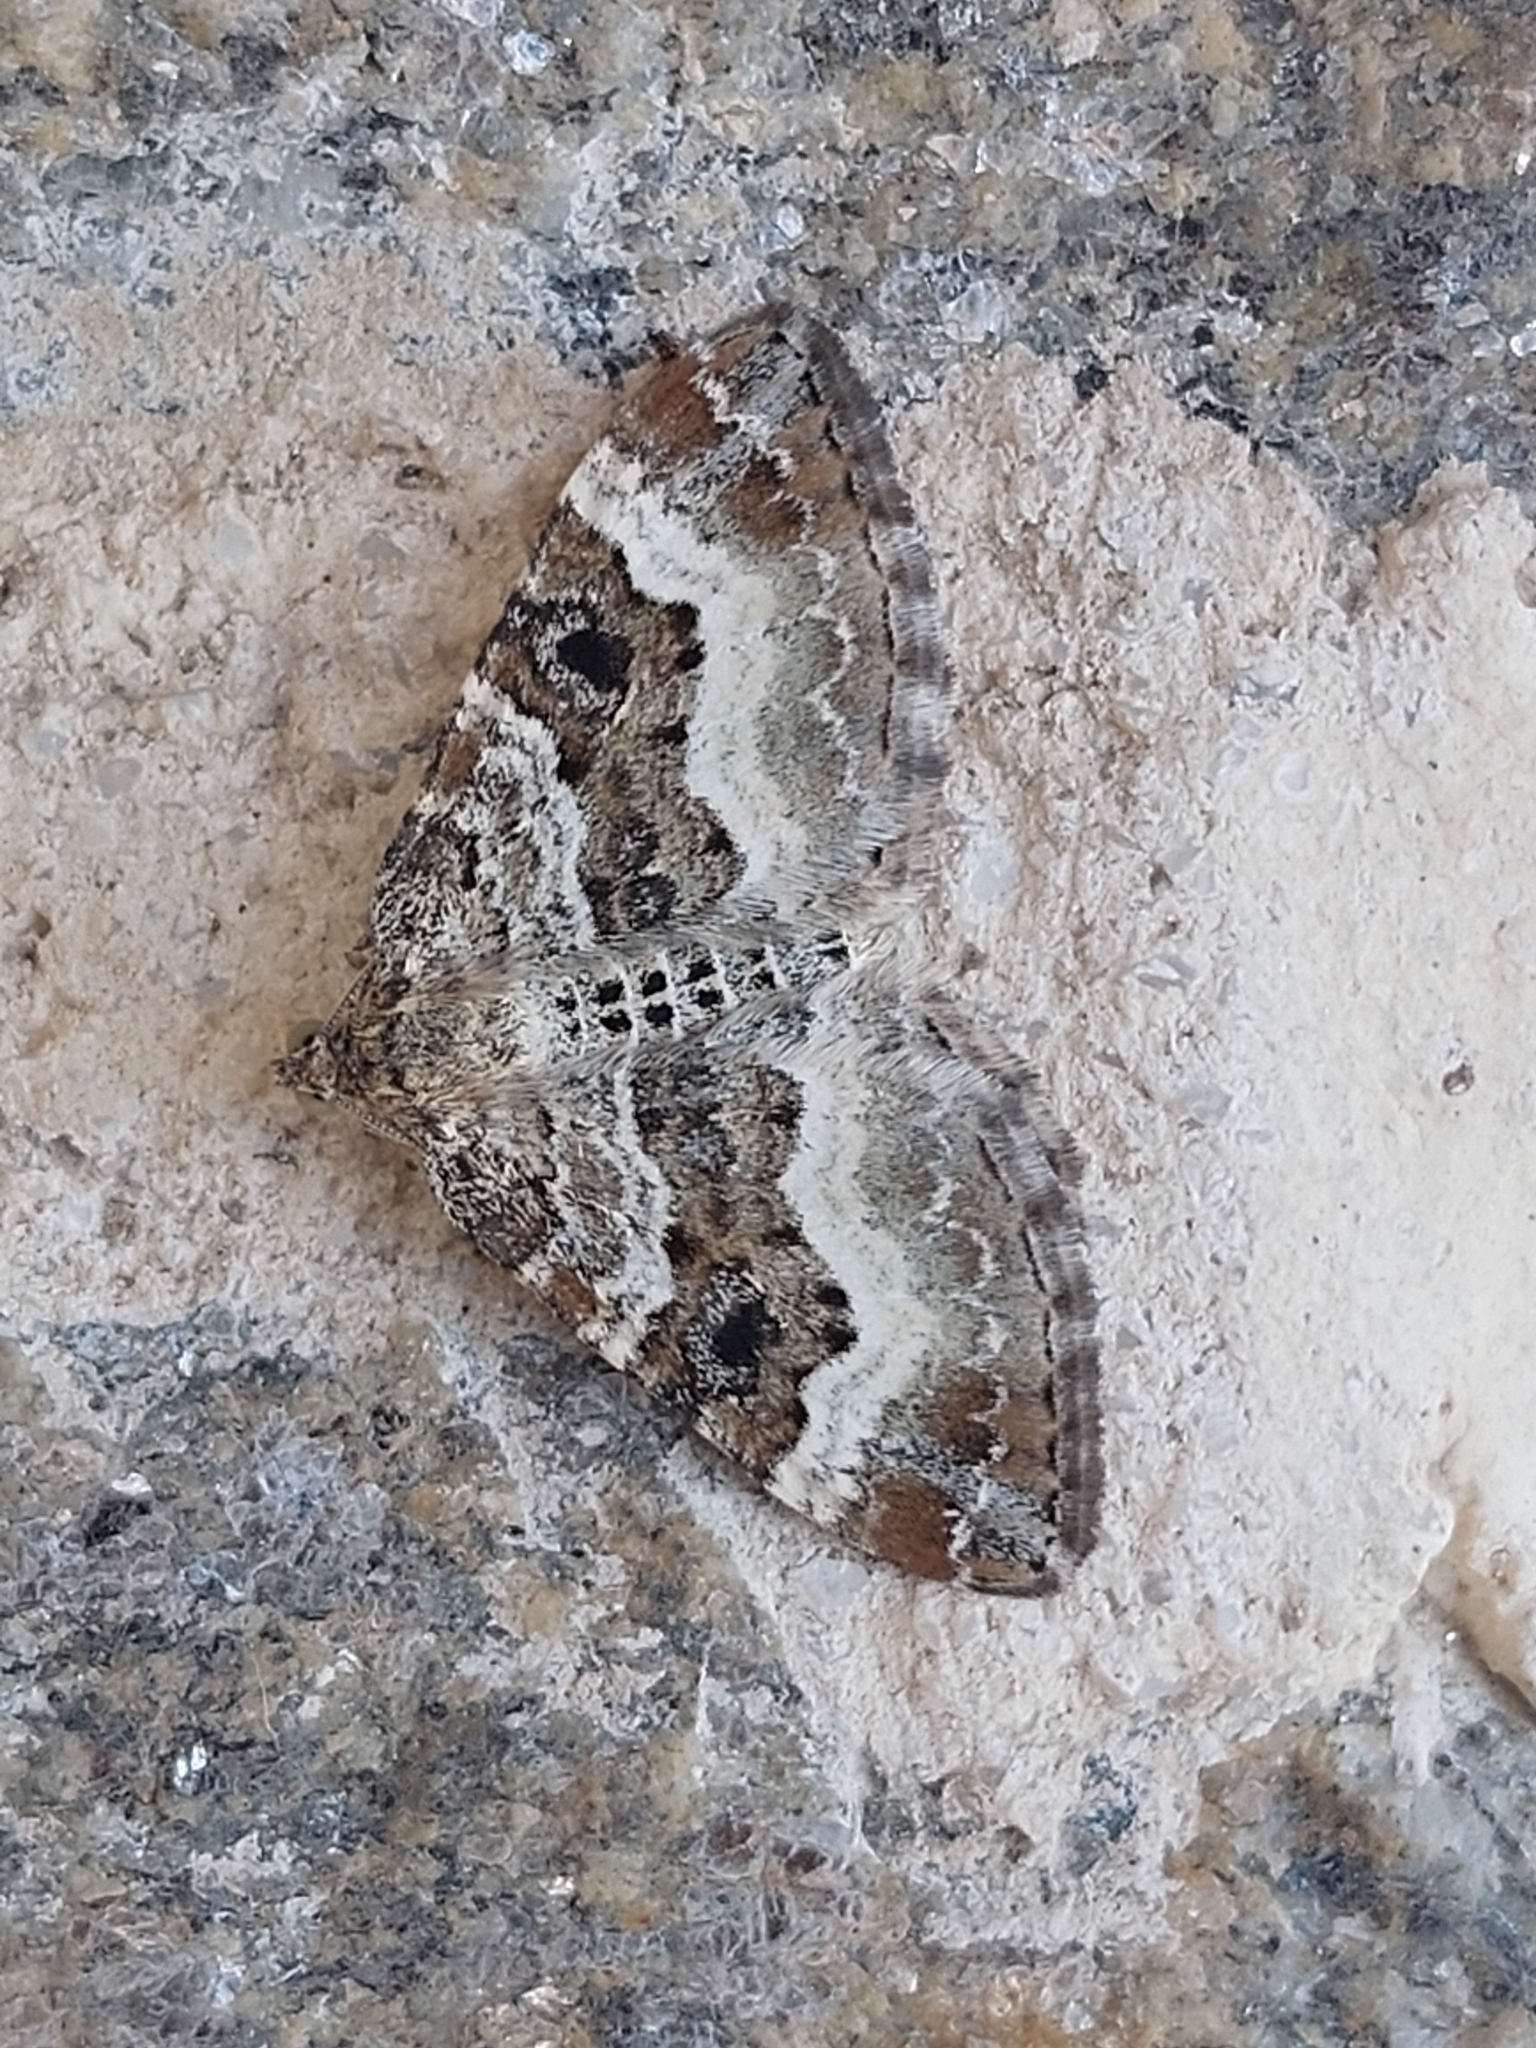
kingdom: Animalia
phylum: Arthropoda
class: Insecta
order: Lepidoptera
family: Geometridae
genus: Epirrhoe
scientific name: Epirrhoe alternata
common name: Common carpet
